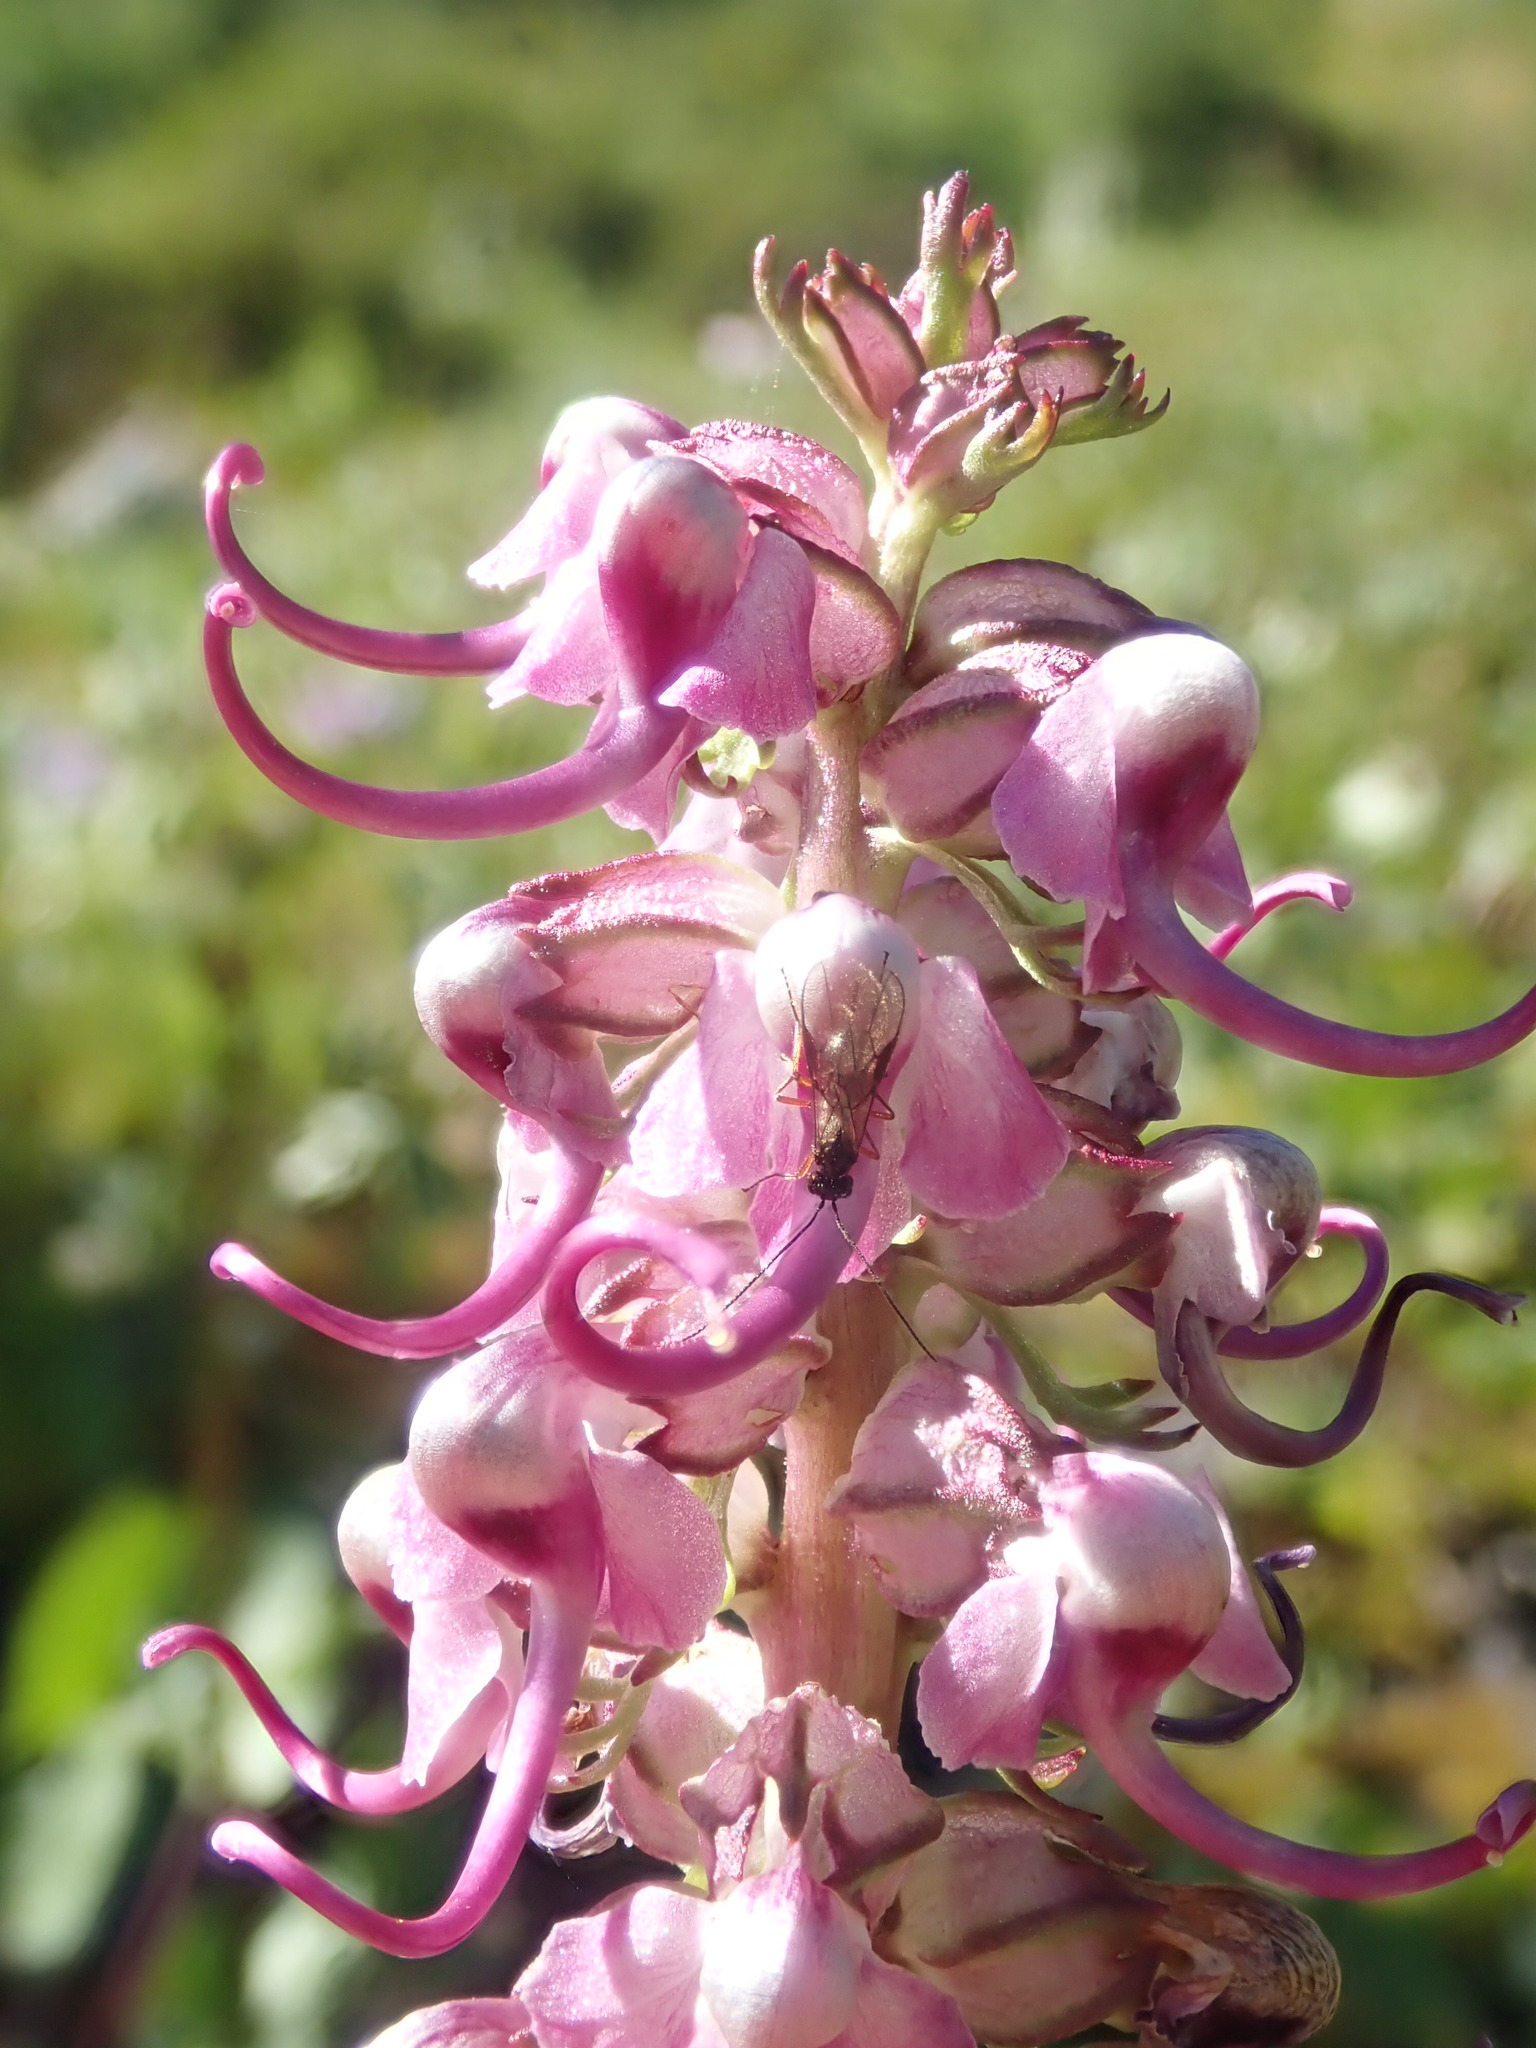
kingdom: Plantae
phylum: Tracheophyta
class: Magnoliopsida
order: Lamiales
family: Orobanchaceae
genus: Pedicularis
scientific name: Pedicularis groenlandica
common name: Elephant's-head
